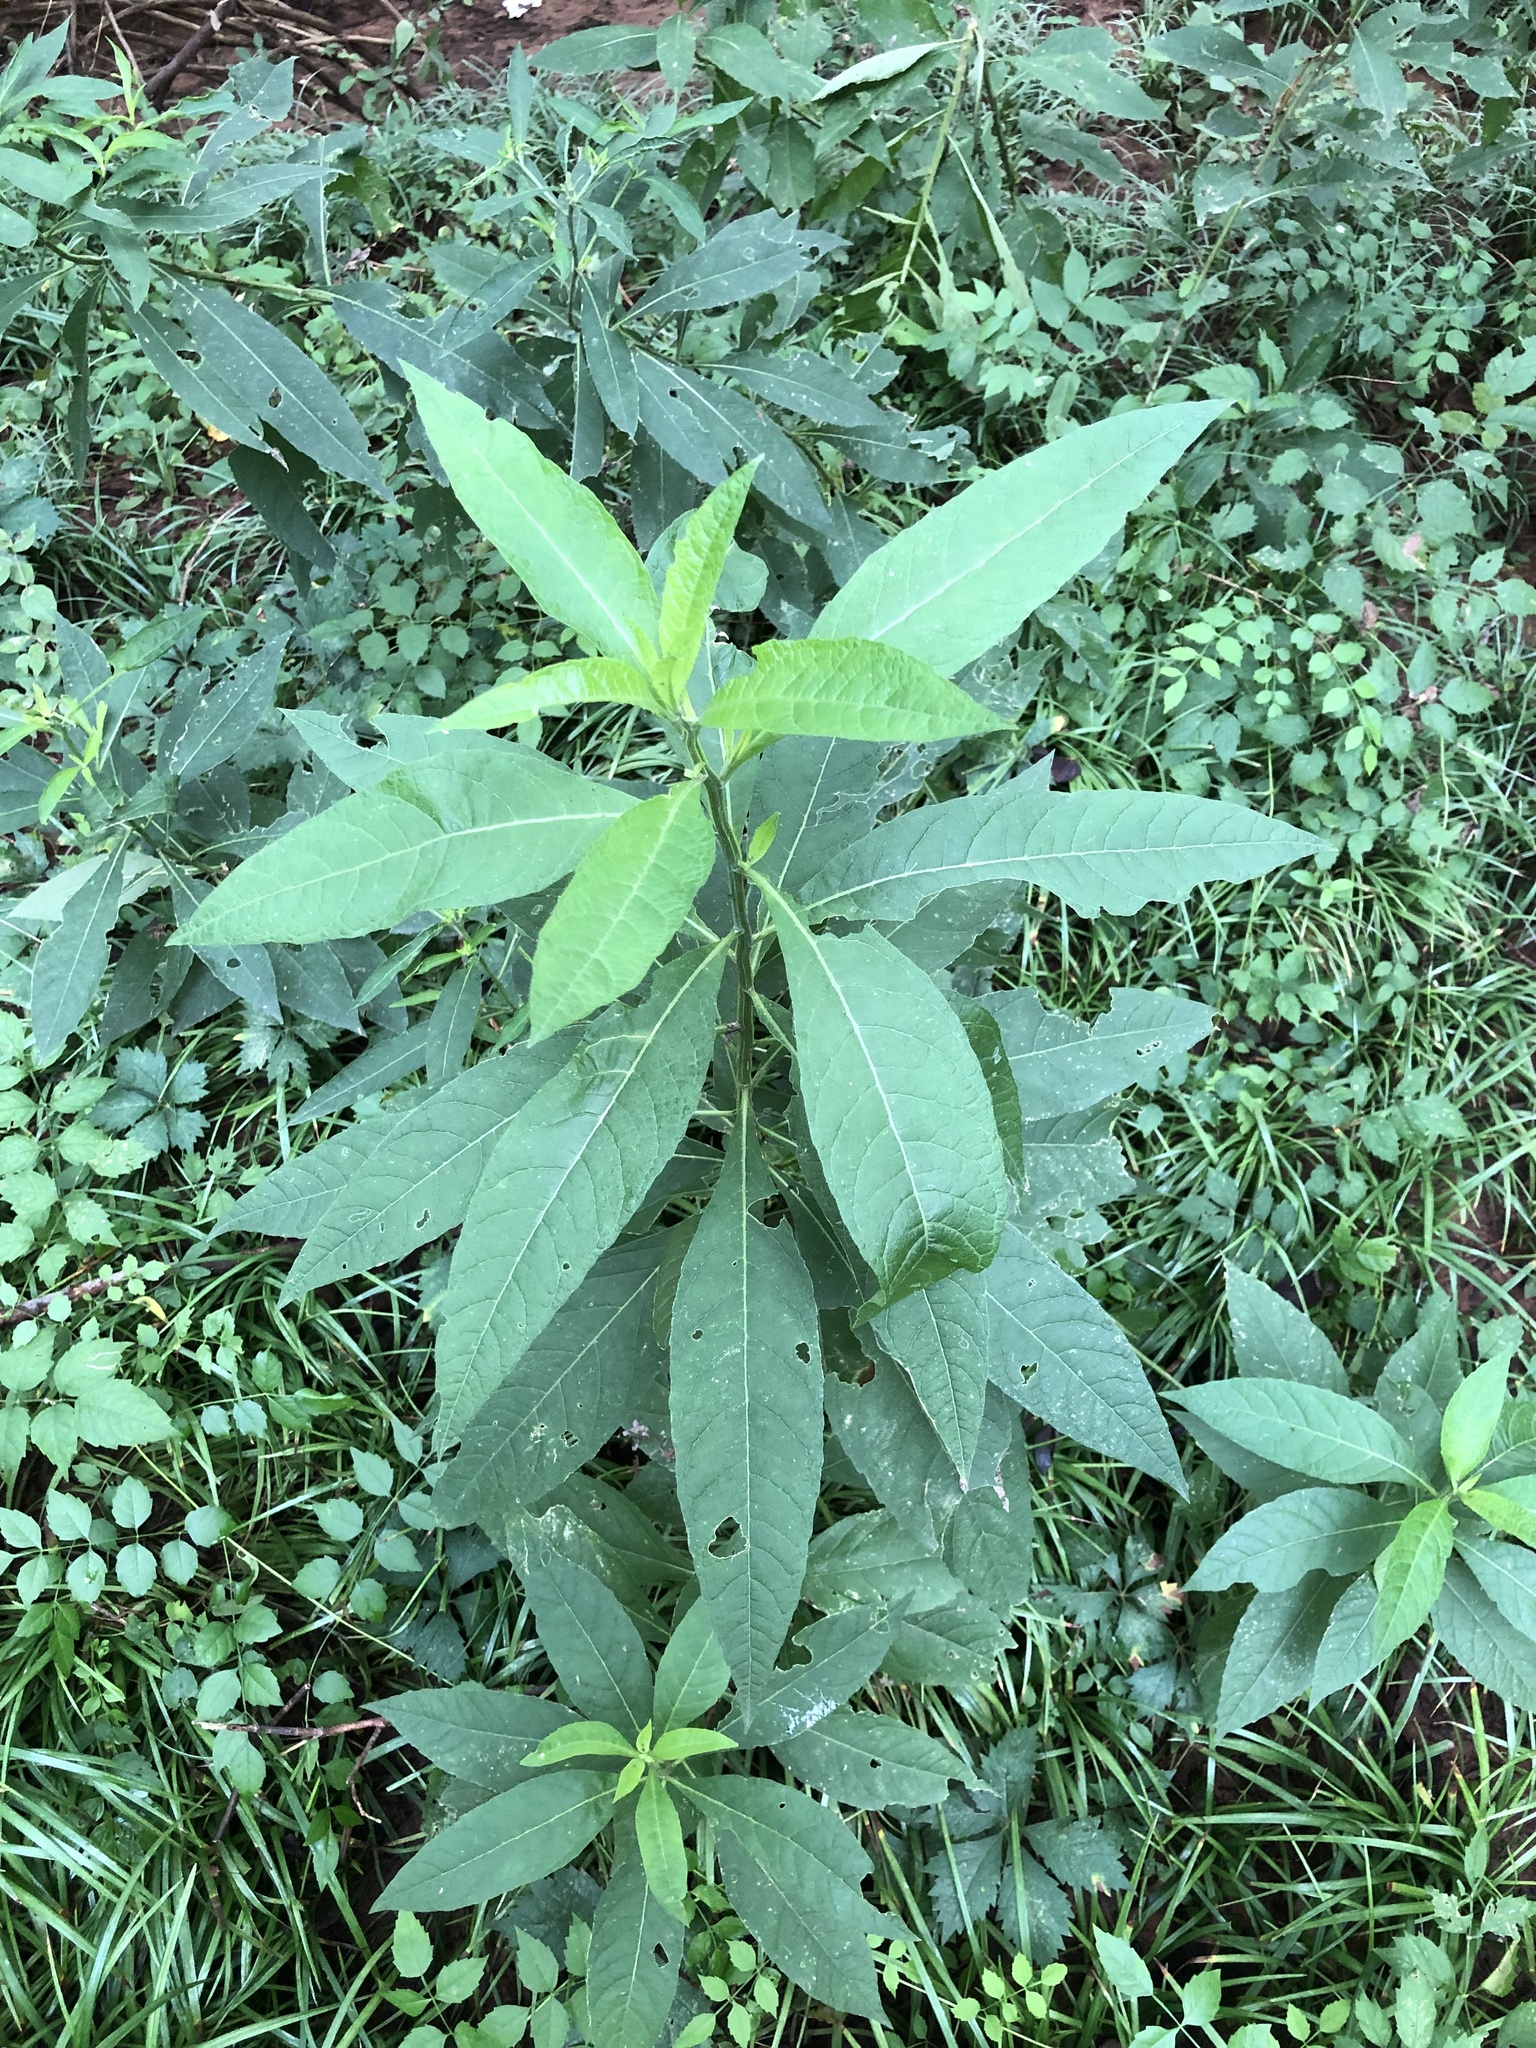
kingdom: Plantae
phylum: Tracheophyta
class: Magnoliopsida
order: Asterales
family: Asteraceae
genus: Verbesina
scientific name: Verbesina alternifolia
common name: Wingstem
